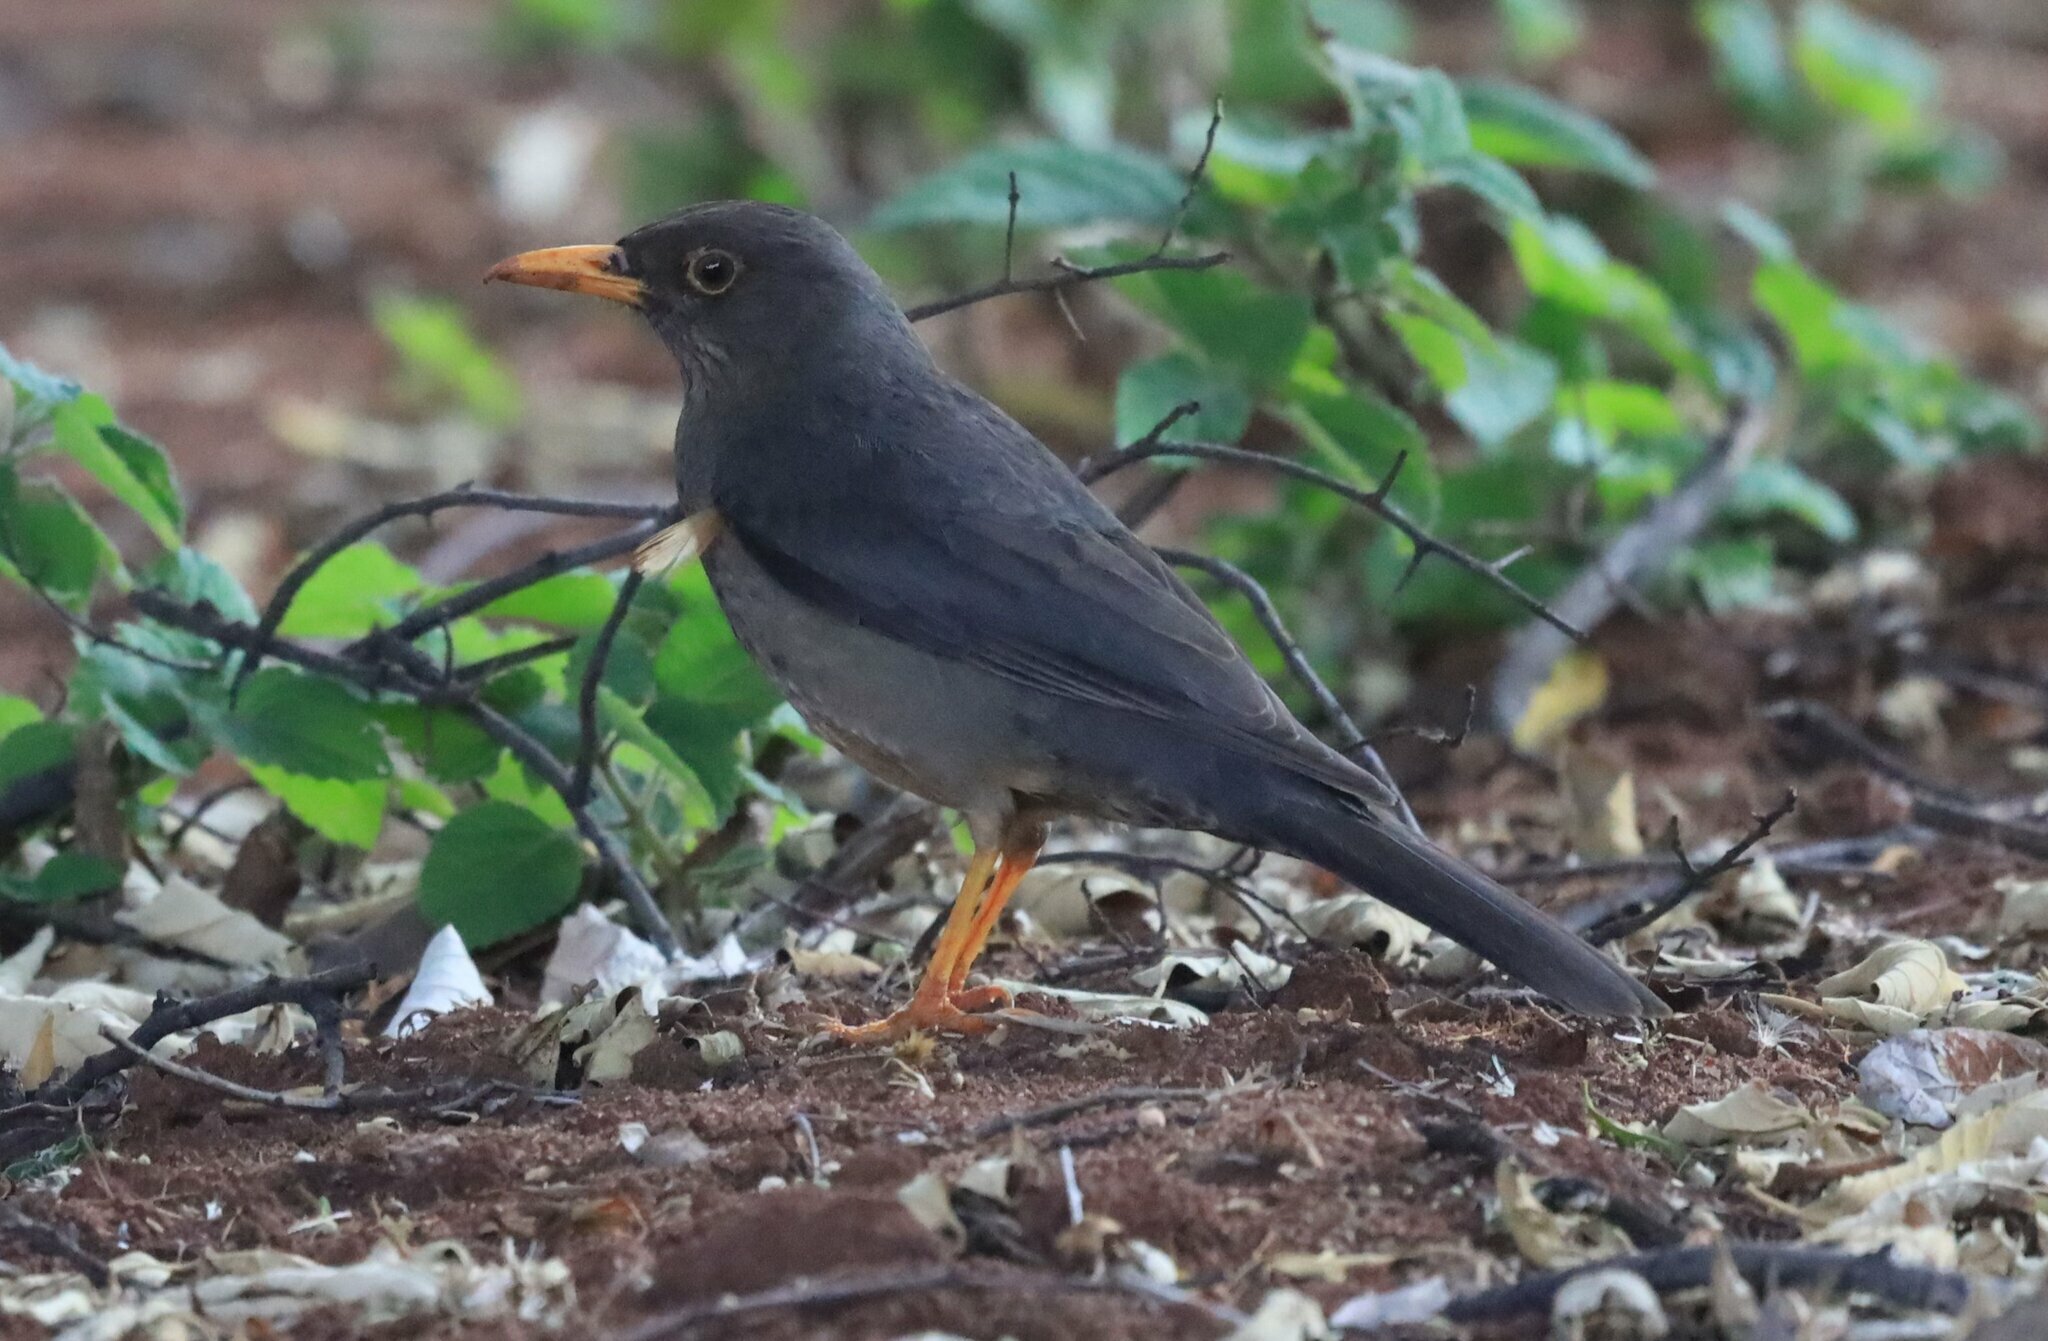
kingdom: Animalia
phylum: Chordata
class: Aves
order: Passeriformes
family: Turdidae
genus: Turdus
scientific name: Turdus smithi
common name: Karoo thrush
